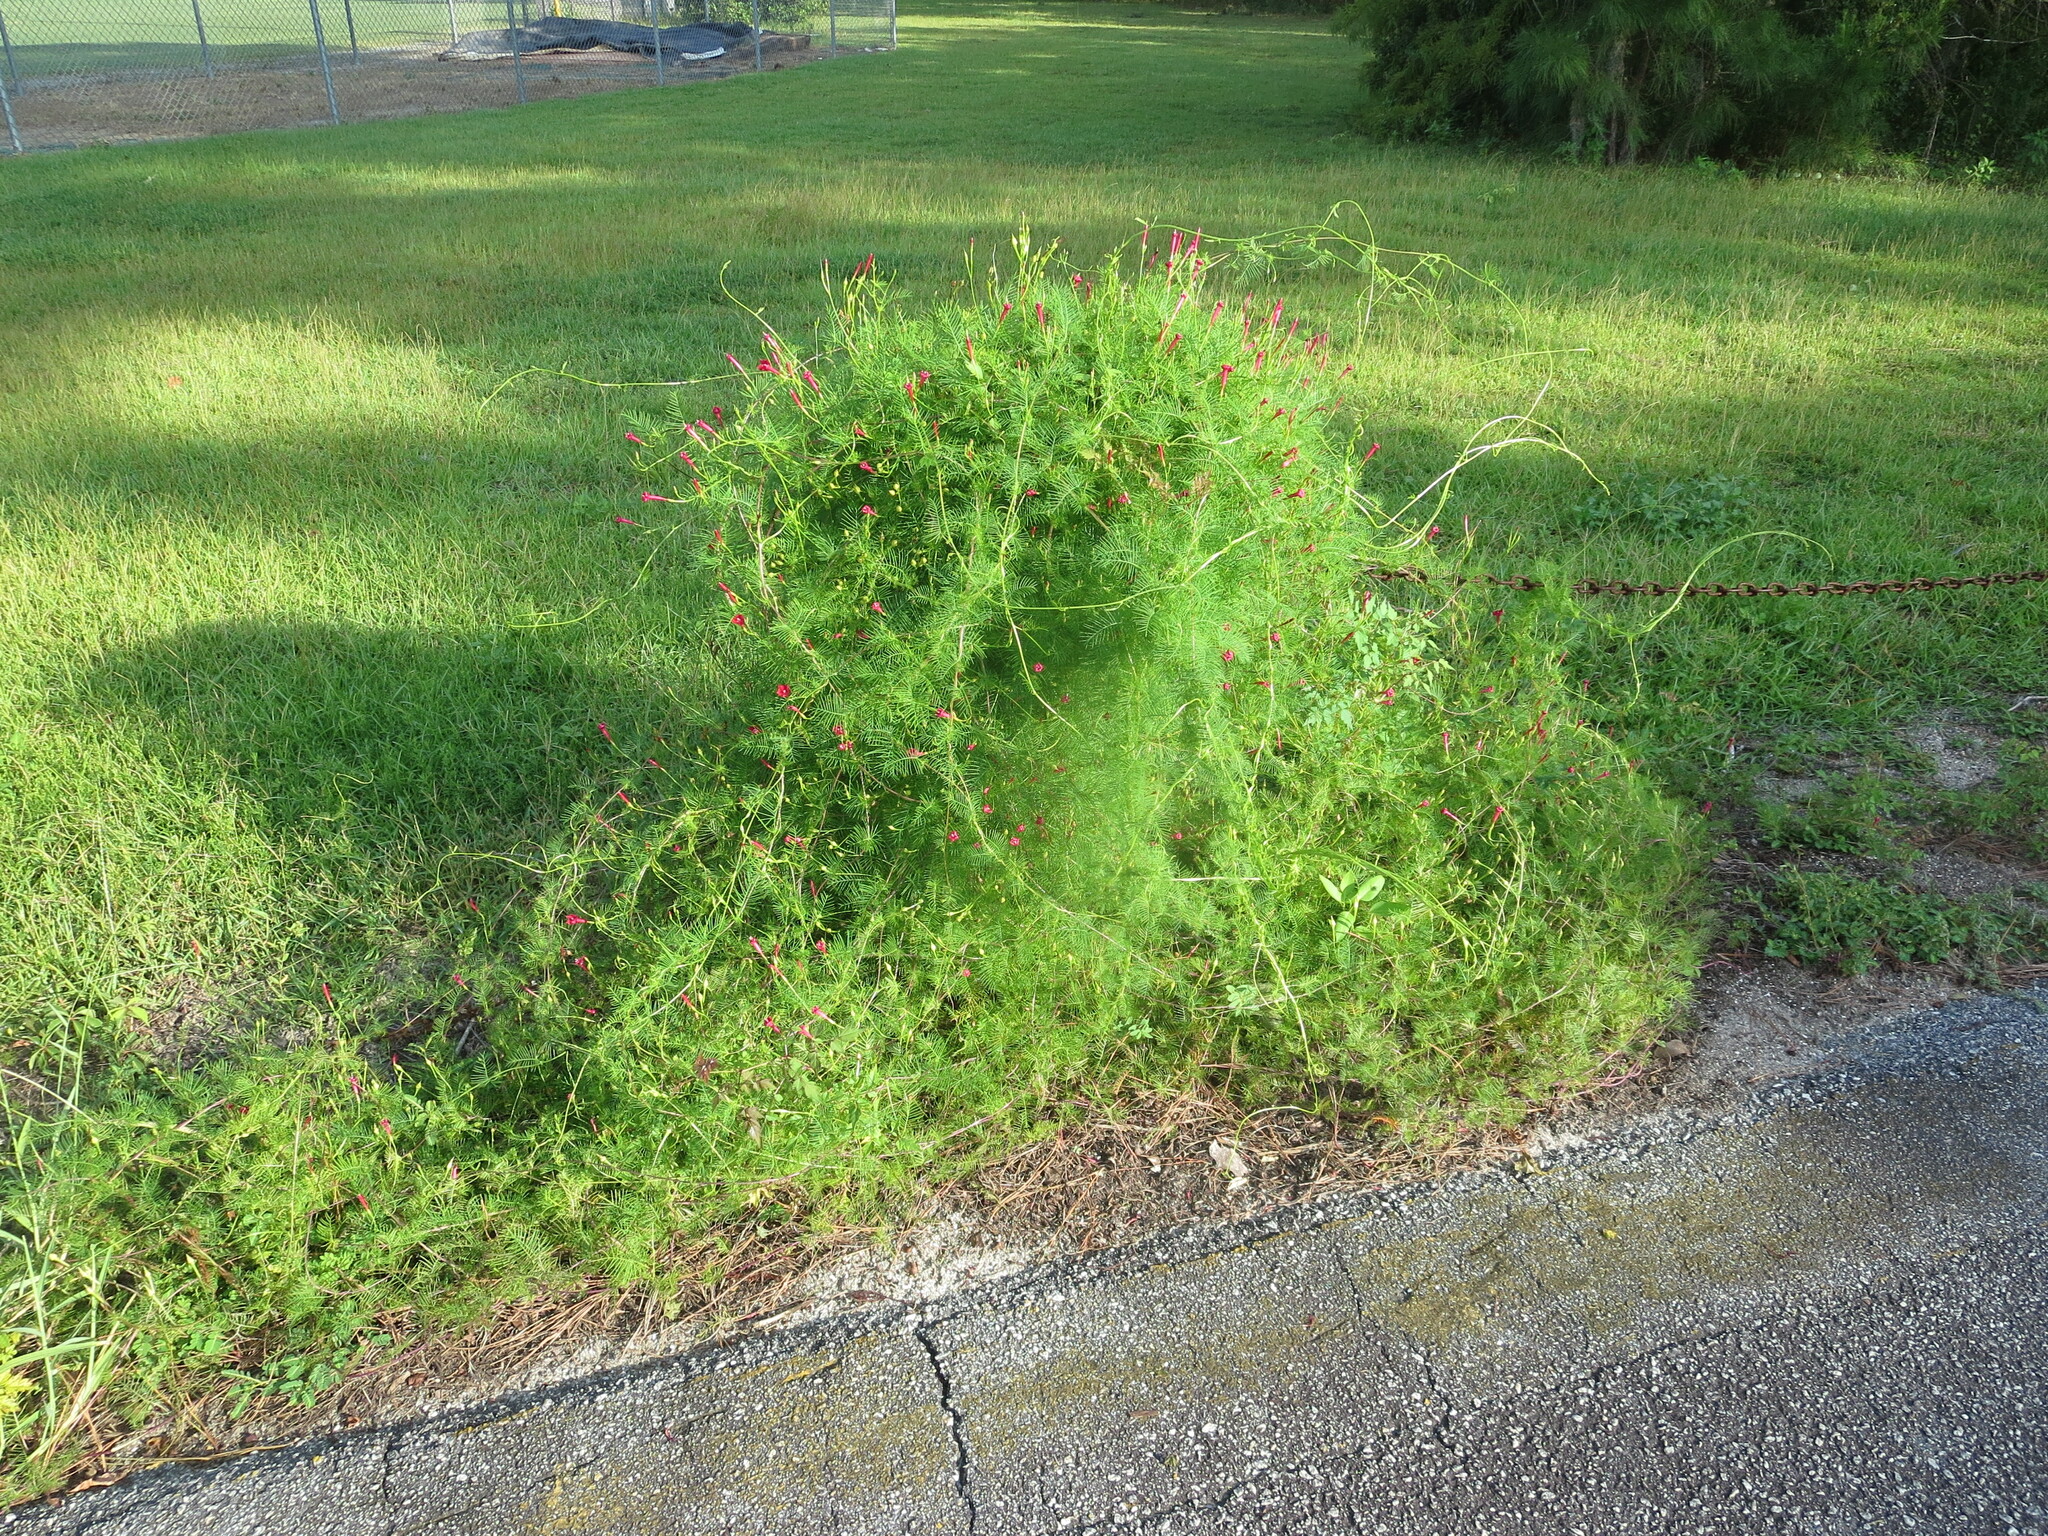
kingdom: Plantae
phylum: Tracheophyta
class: Magnoliopsida
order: Solanales
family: Convolvulaceae
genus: Ipomoea
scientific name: Ipomoea quamoclit
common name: Cypress vine
